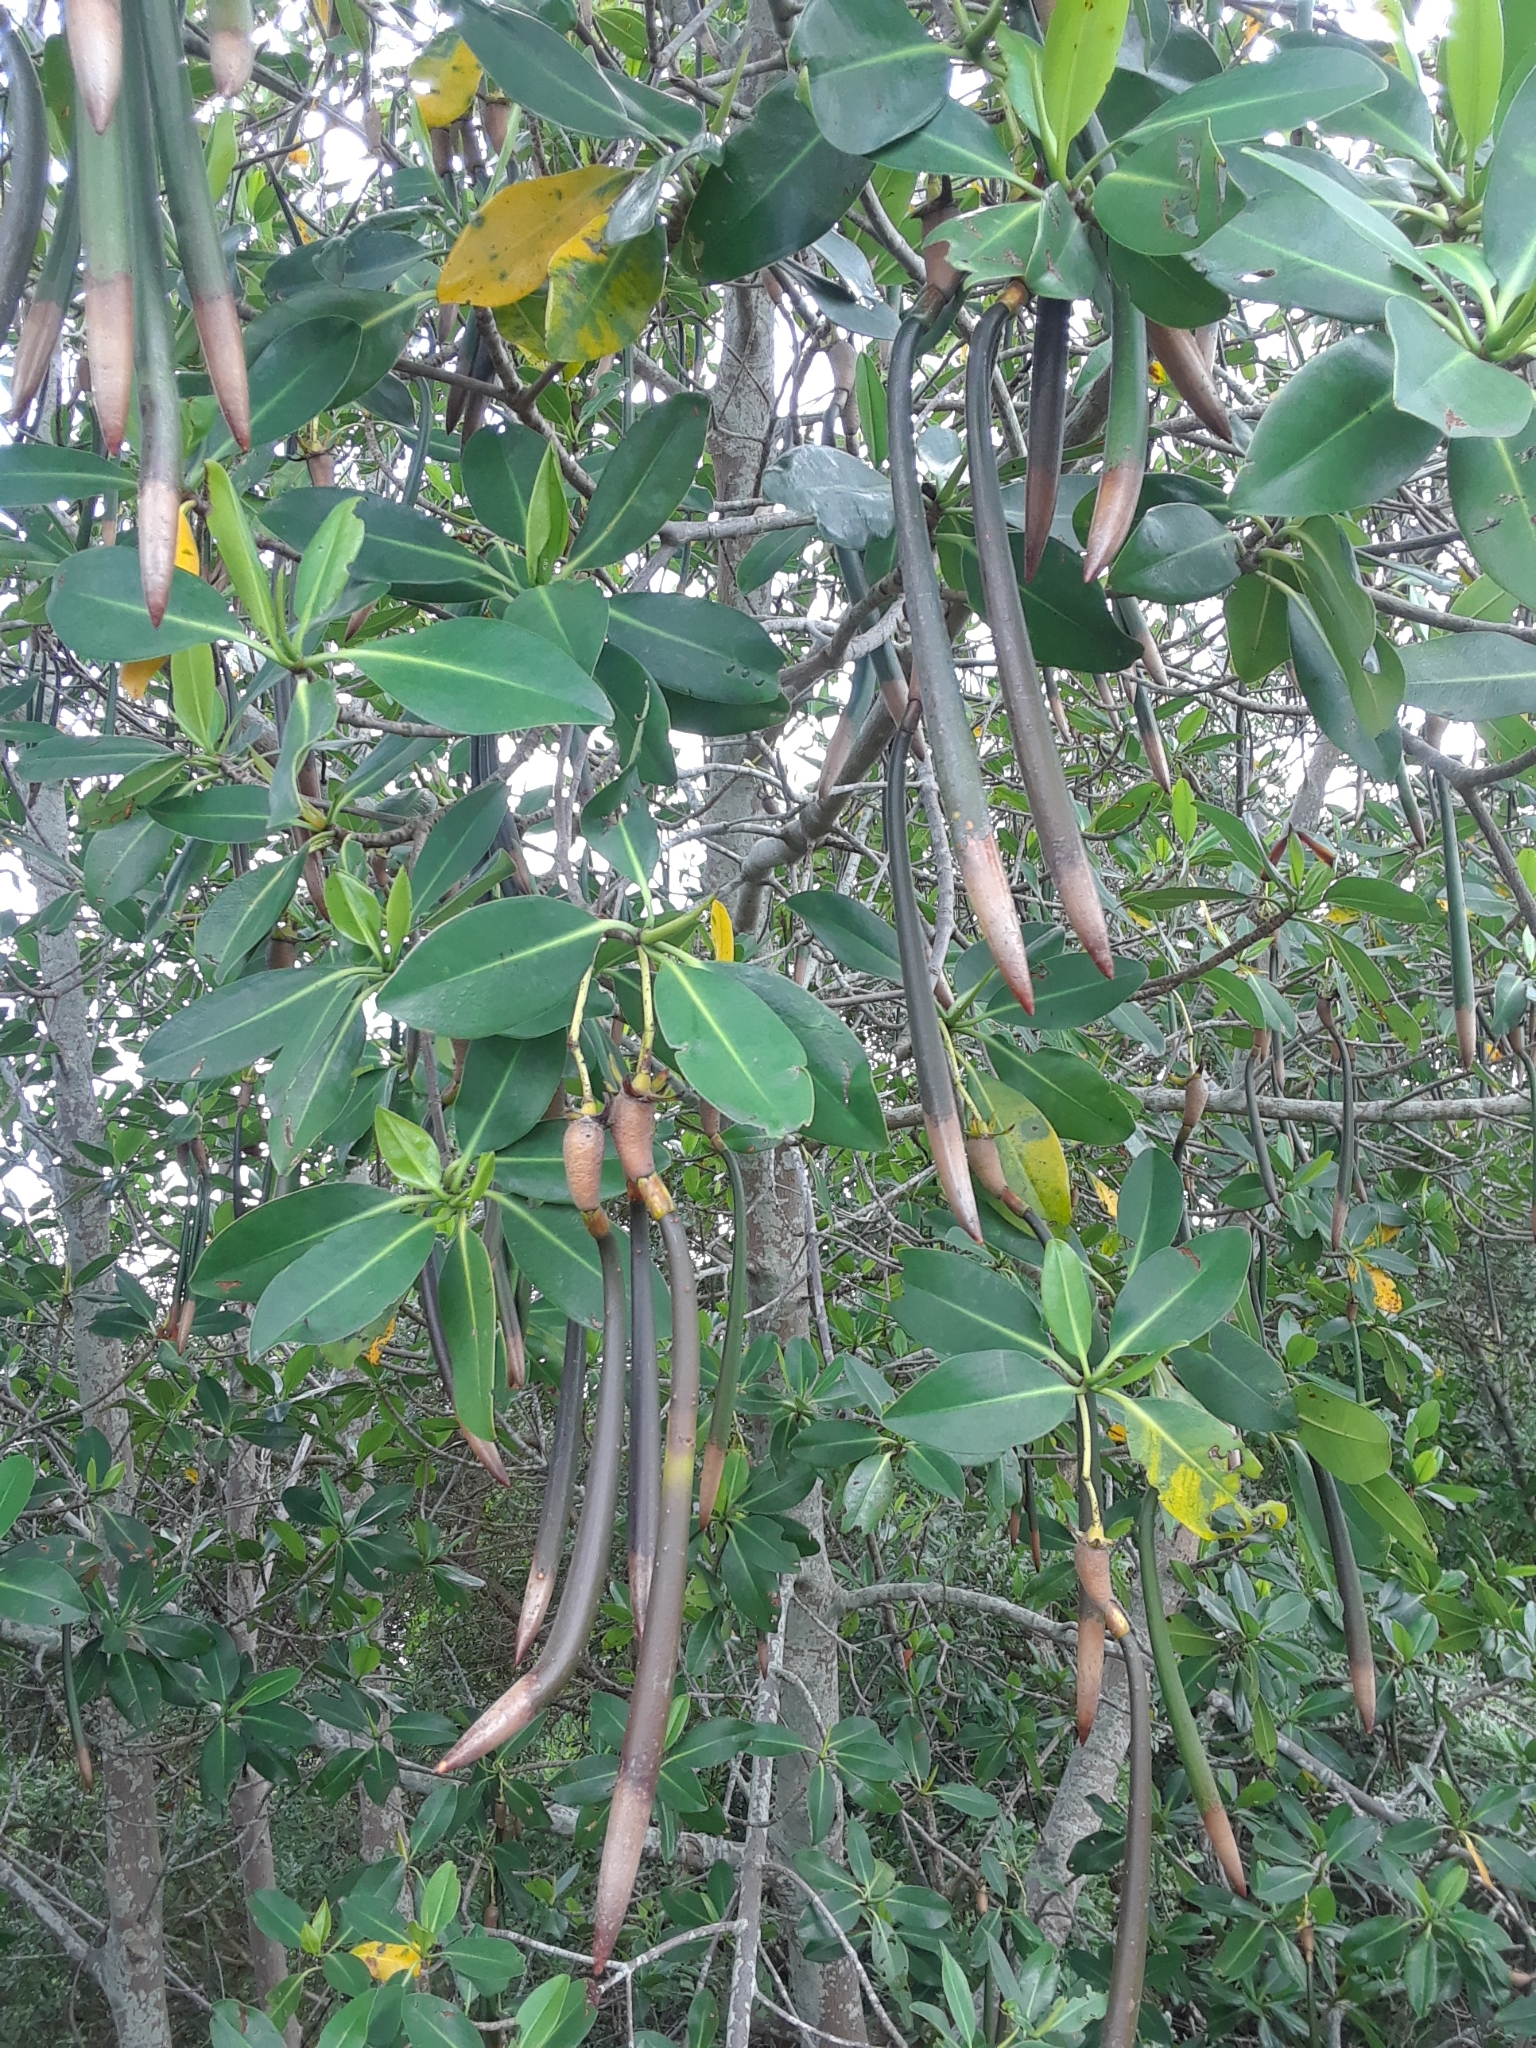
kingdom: Plantae
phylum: Tracheophyta
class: Magnoliopsida
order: Malpighiales
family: Rhizophoraceae
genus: Rhizophora
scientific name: Rhizophora mangle
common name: Red mangrove
